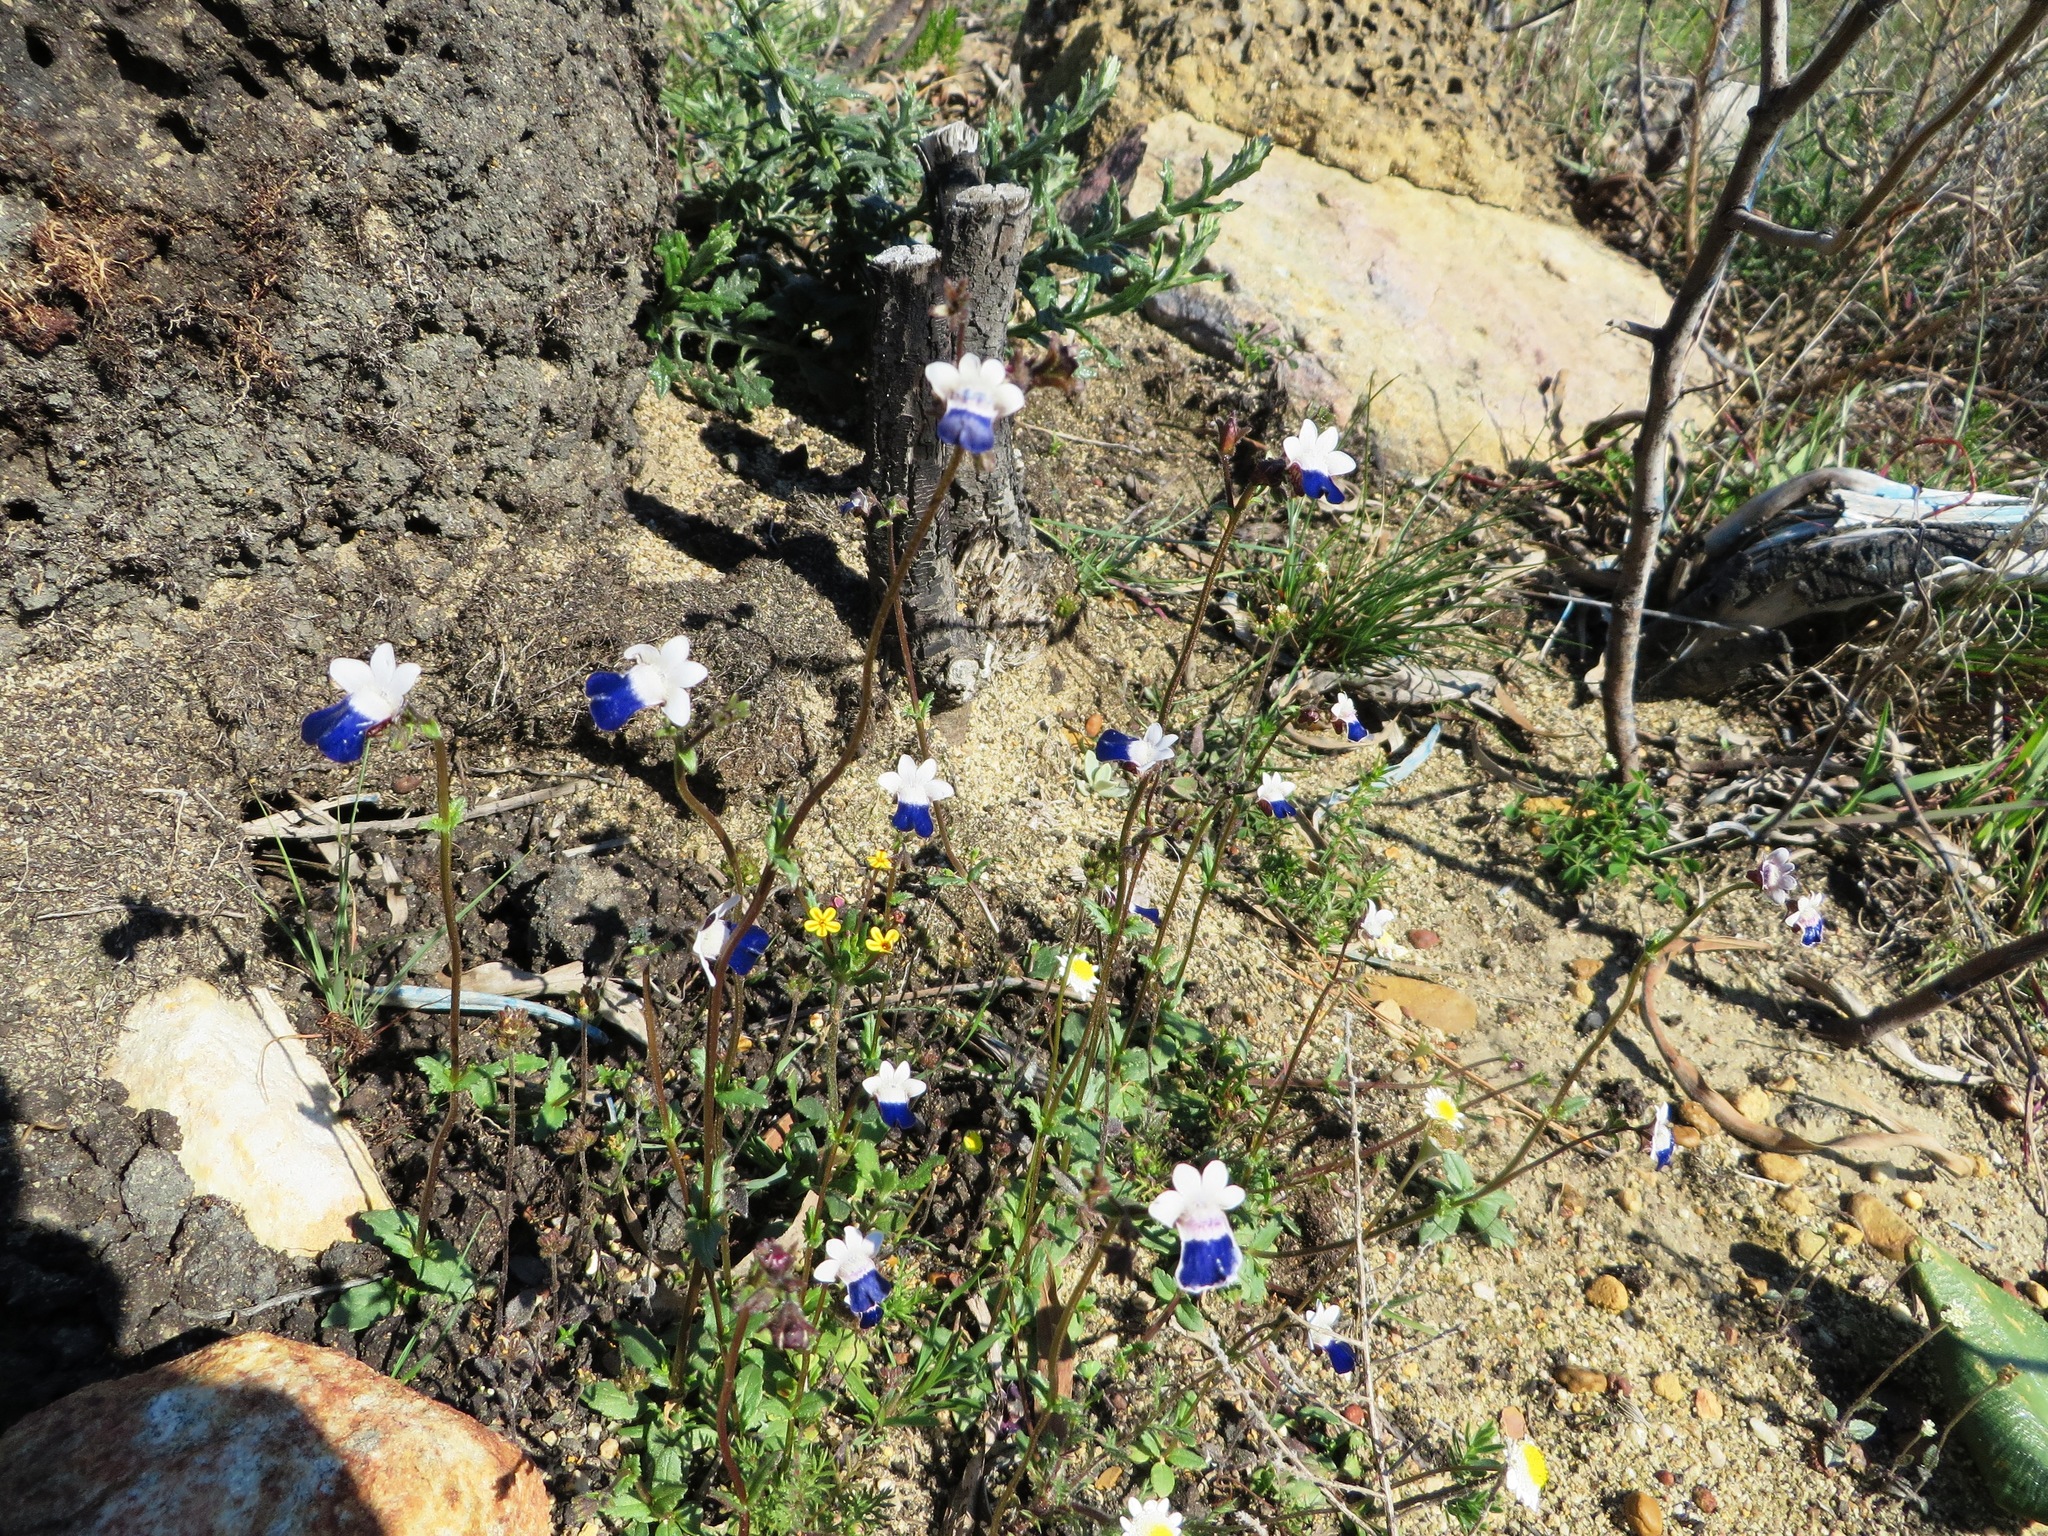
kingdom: Plantae
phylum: Tracheophyta
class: Magnoliopsida
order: Lamiales
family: Scrophulariaceae
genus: Nemesia
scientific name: Nemesia barbata
